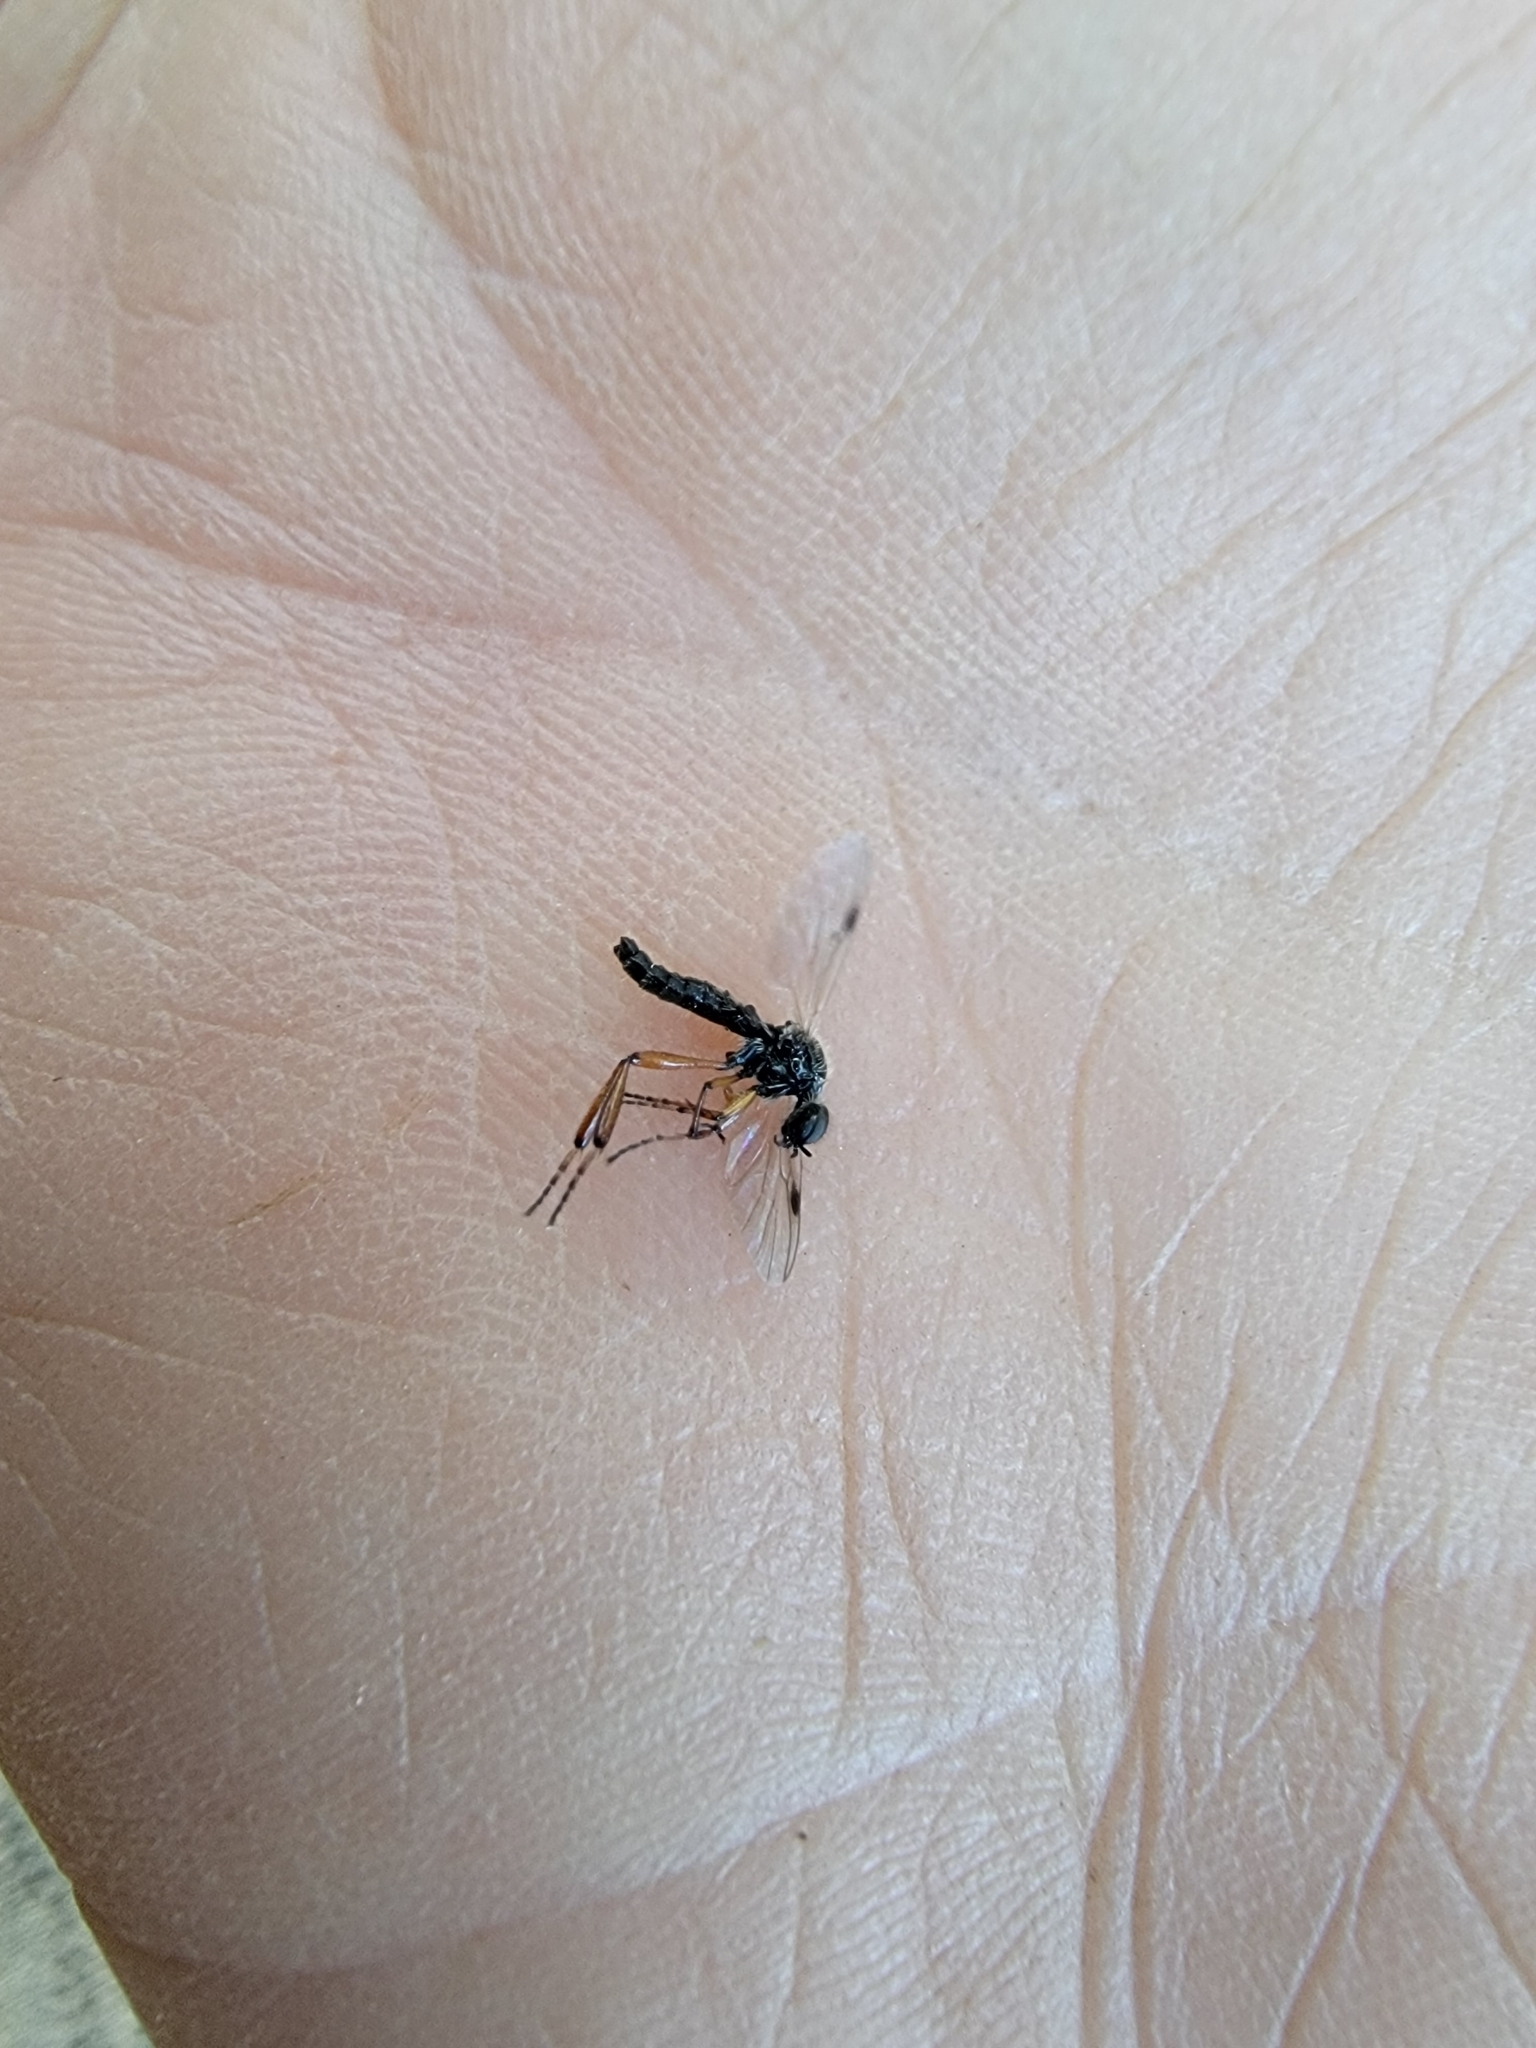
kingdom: Animalia
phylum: Arthropoda
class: Insecta
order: Diptera
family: Bibionidae
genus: Bibio
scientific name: Bibio articulatus
